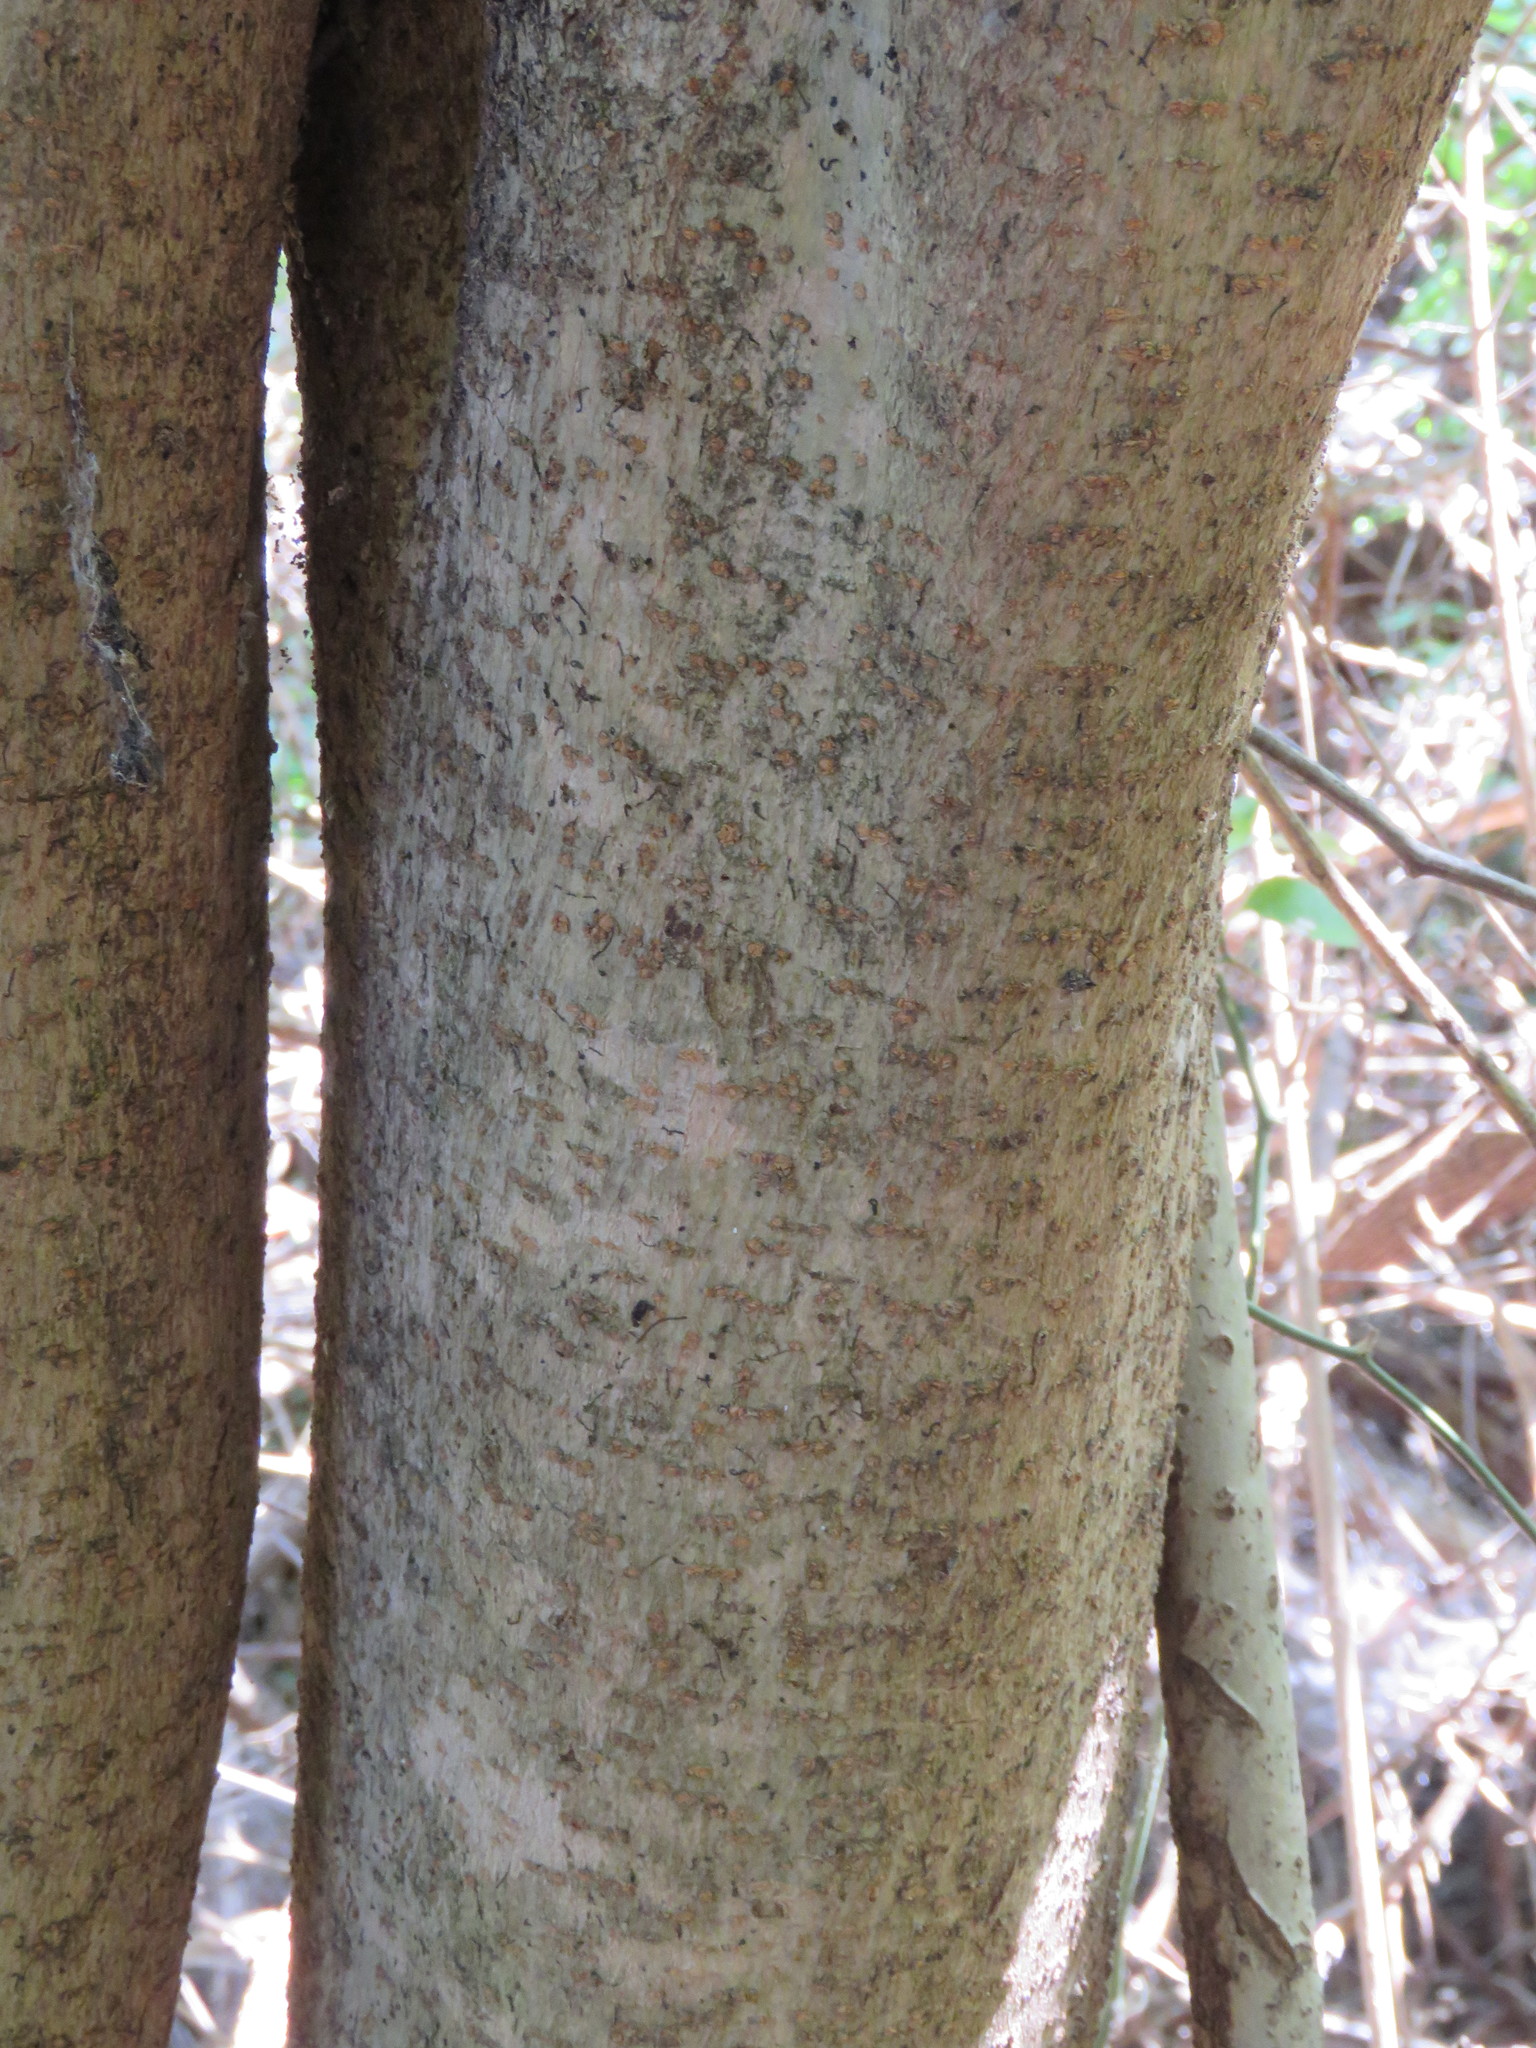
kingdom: Plantae
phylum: Tracheophyta
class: Magnoliopsida
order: Lamiales
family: Oleaceae
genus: Ligustrum
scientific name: Ligustrum lucidum
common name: Glossy privet
